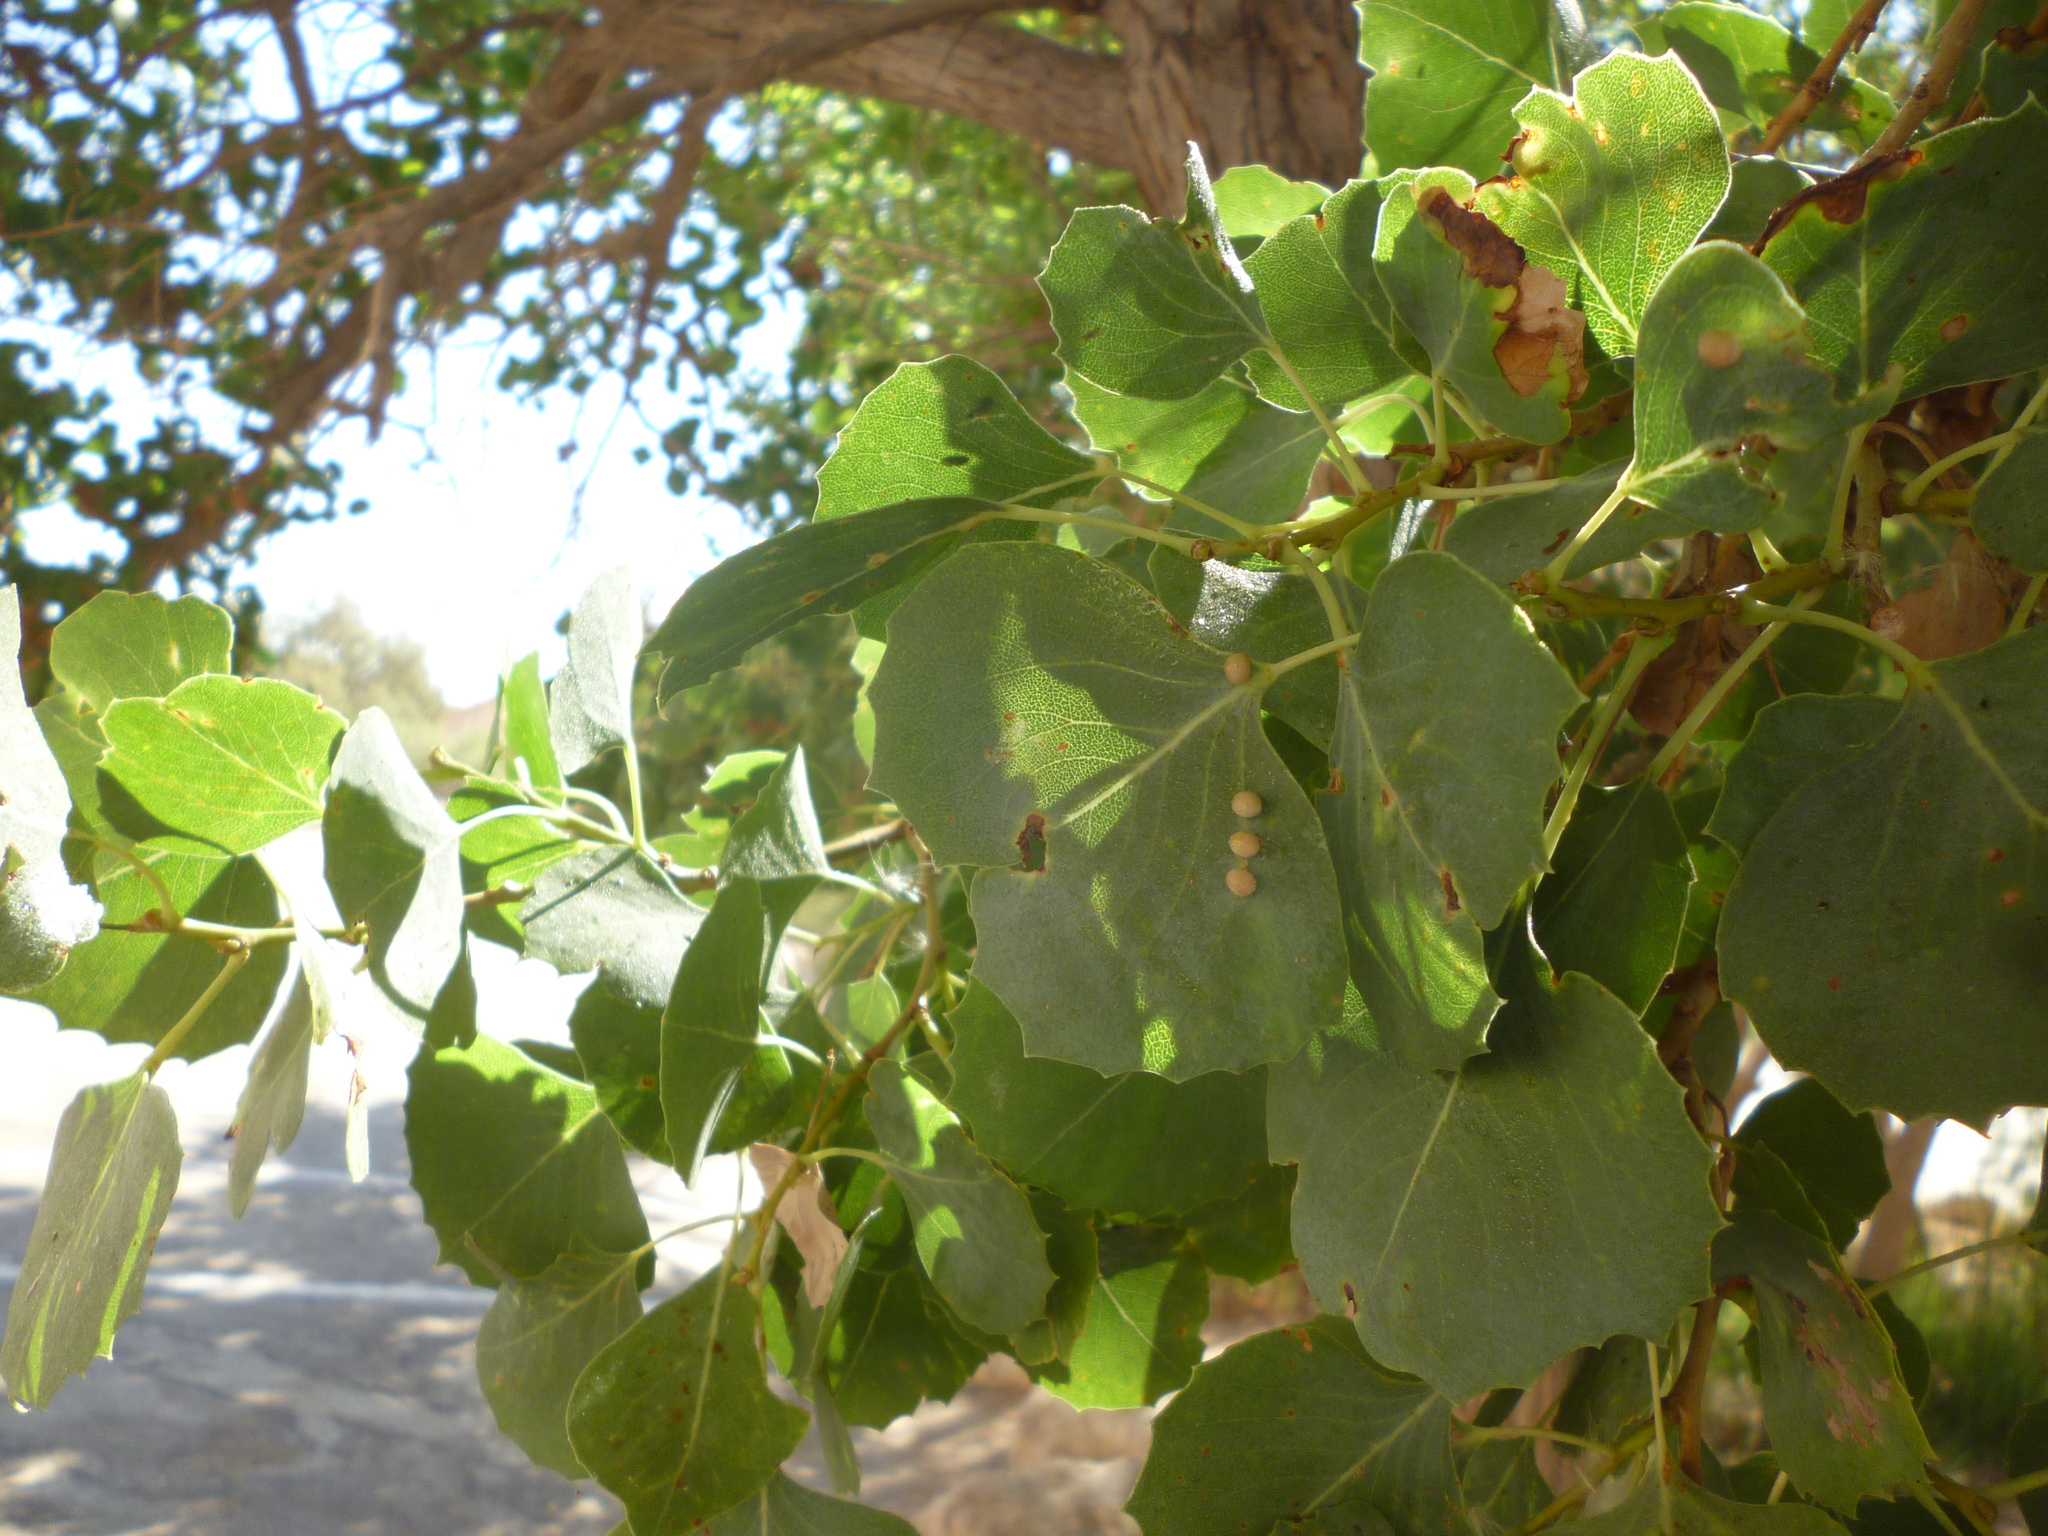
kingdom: Plantae
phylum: Tracheophyta
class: Magnoliopsida
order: Malpighiales
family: Salicaceae
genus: Populus
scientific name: Populus euphratica
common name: Euphrates poplar
